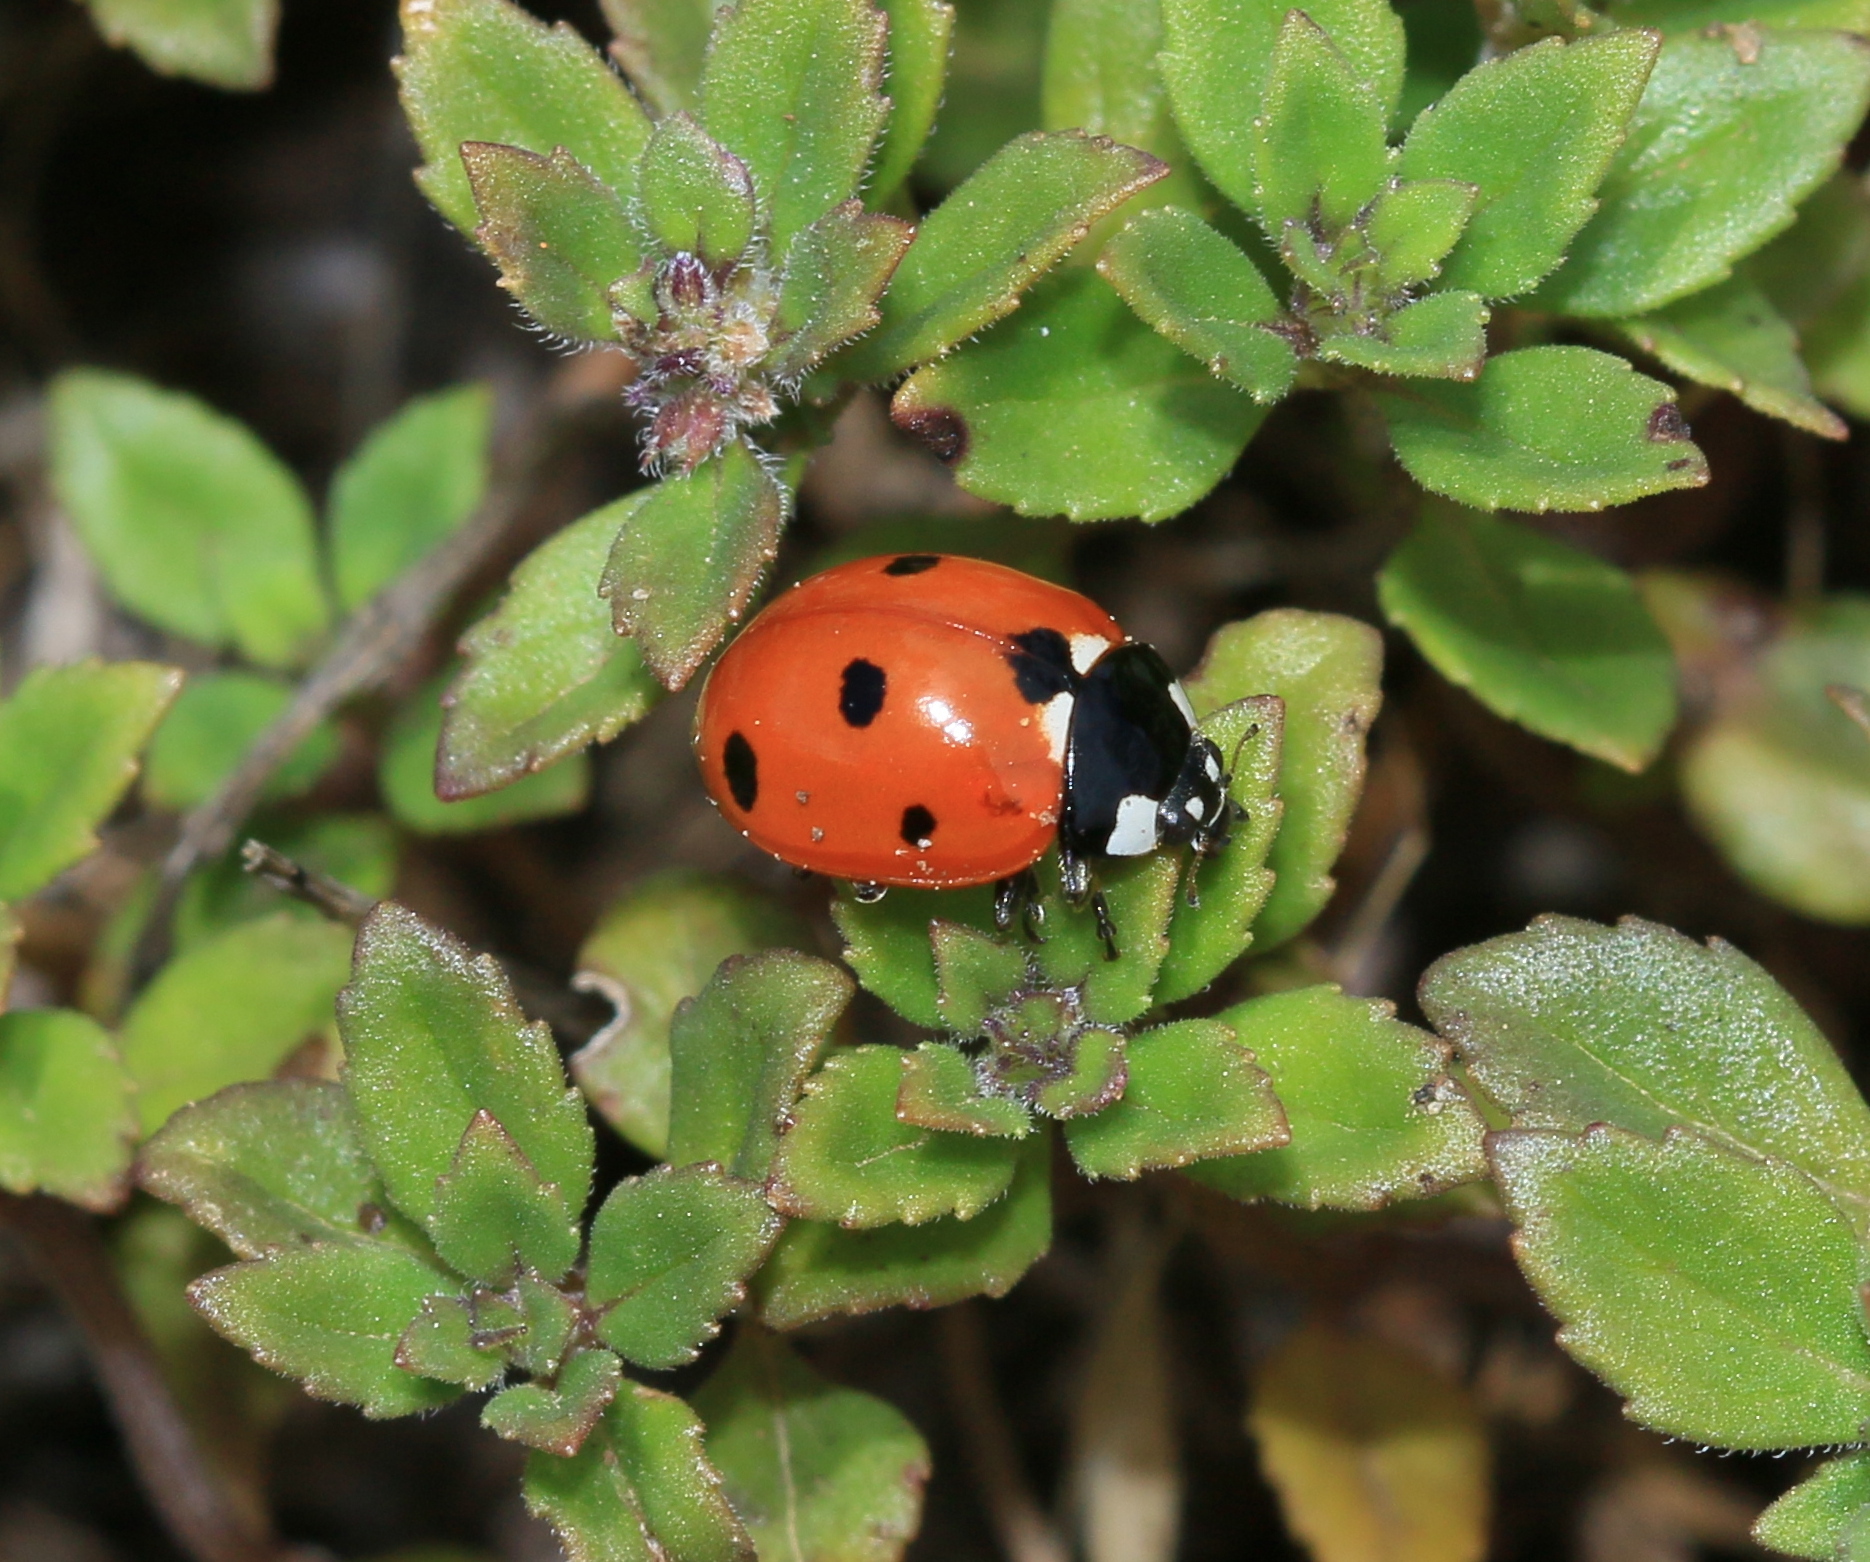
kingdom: Animalia
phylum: Arthropoda
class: Insecta
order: Coleoptera
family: Coccinellidae
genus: Coccinella
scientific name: Coccinella septempunctata
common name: Sevenspotted lady beetle
